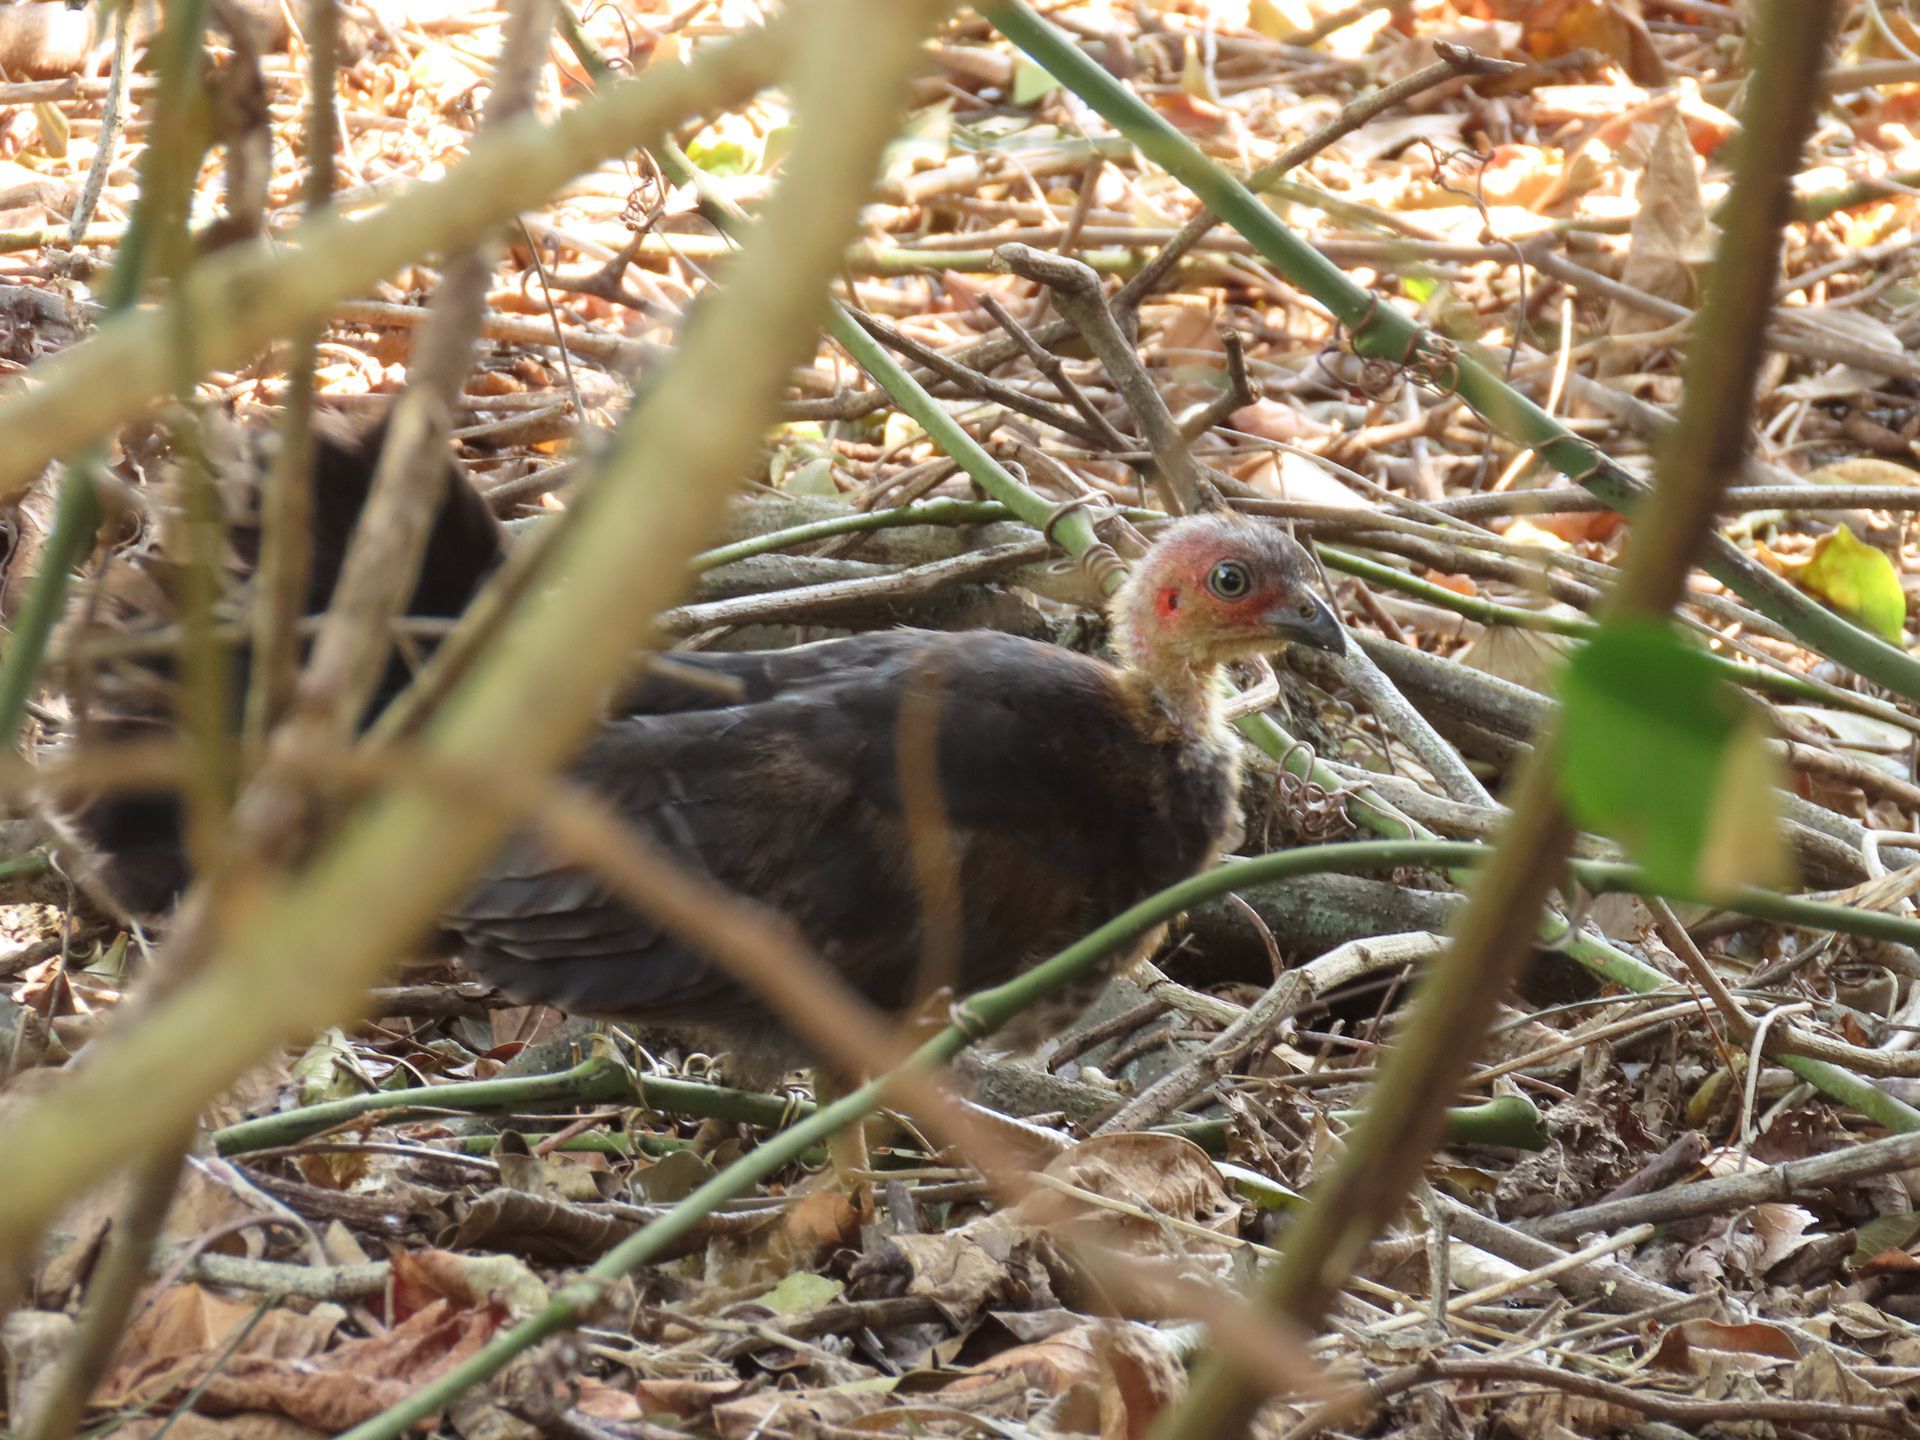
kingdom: Animalia
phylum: Chordata
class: Aves
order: Galliformes
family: Megapodiidae
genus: Alectura
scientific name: Alectura lathami
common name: Australian brushturkey
